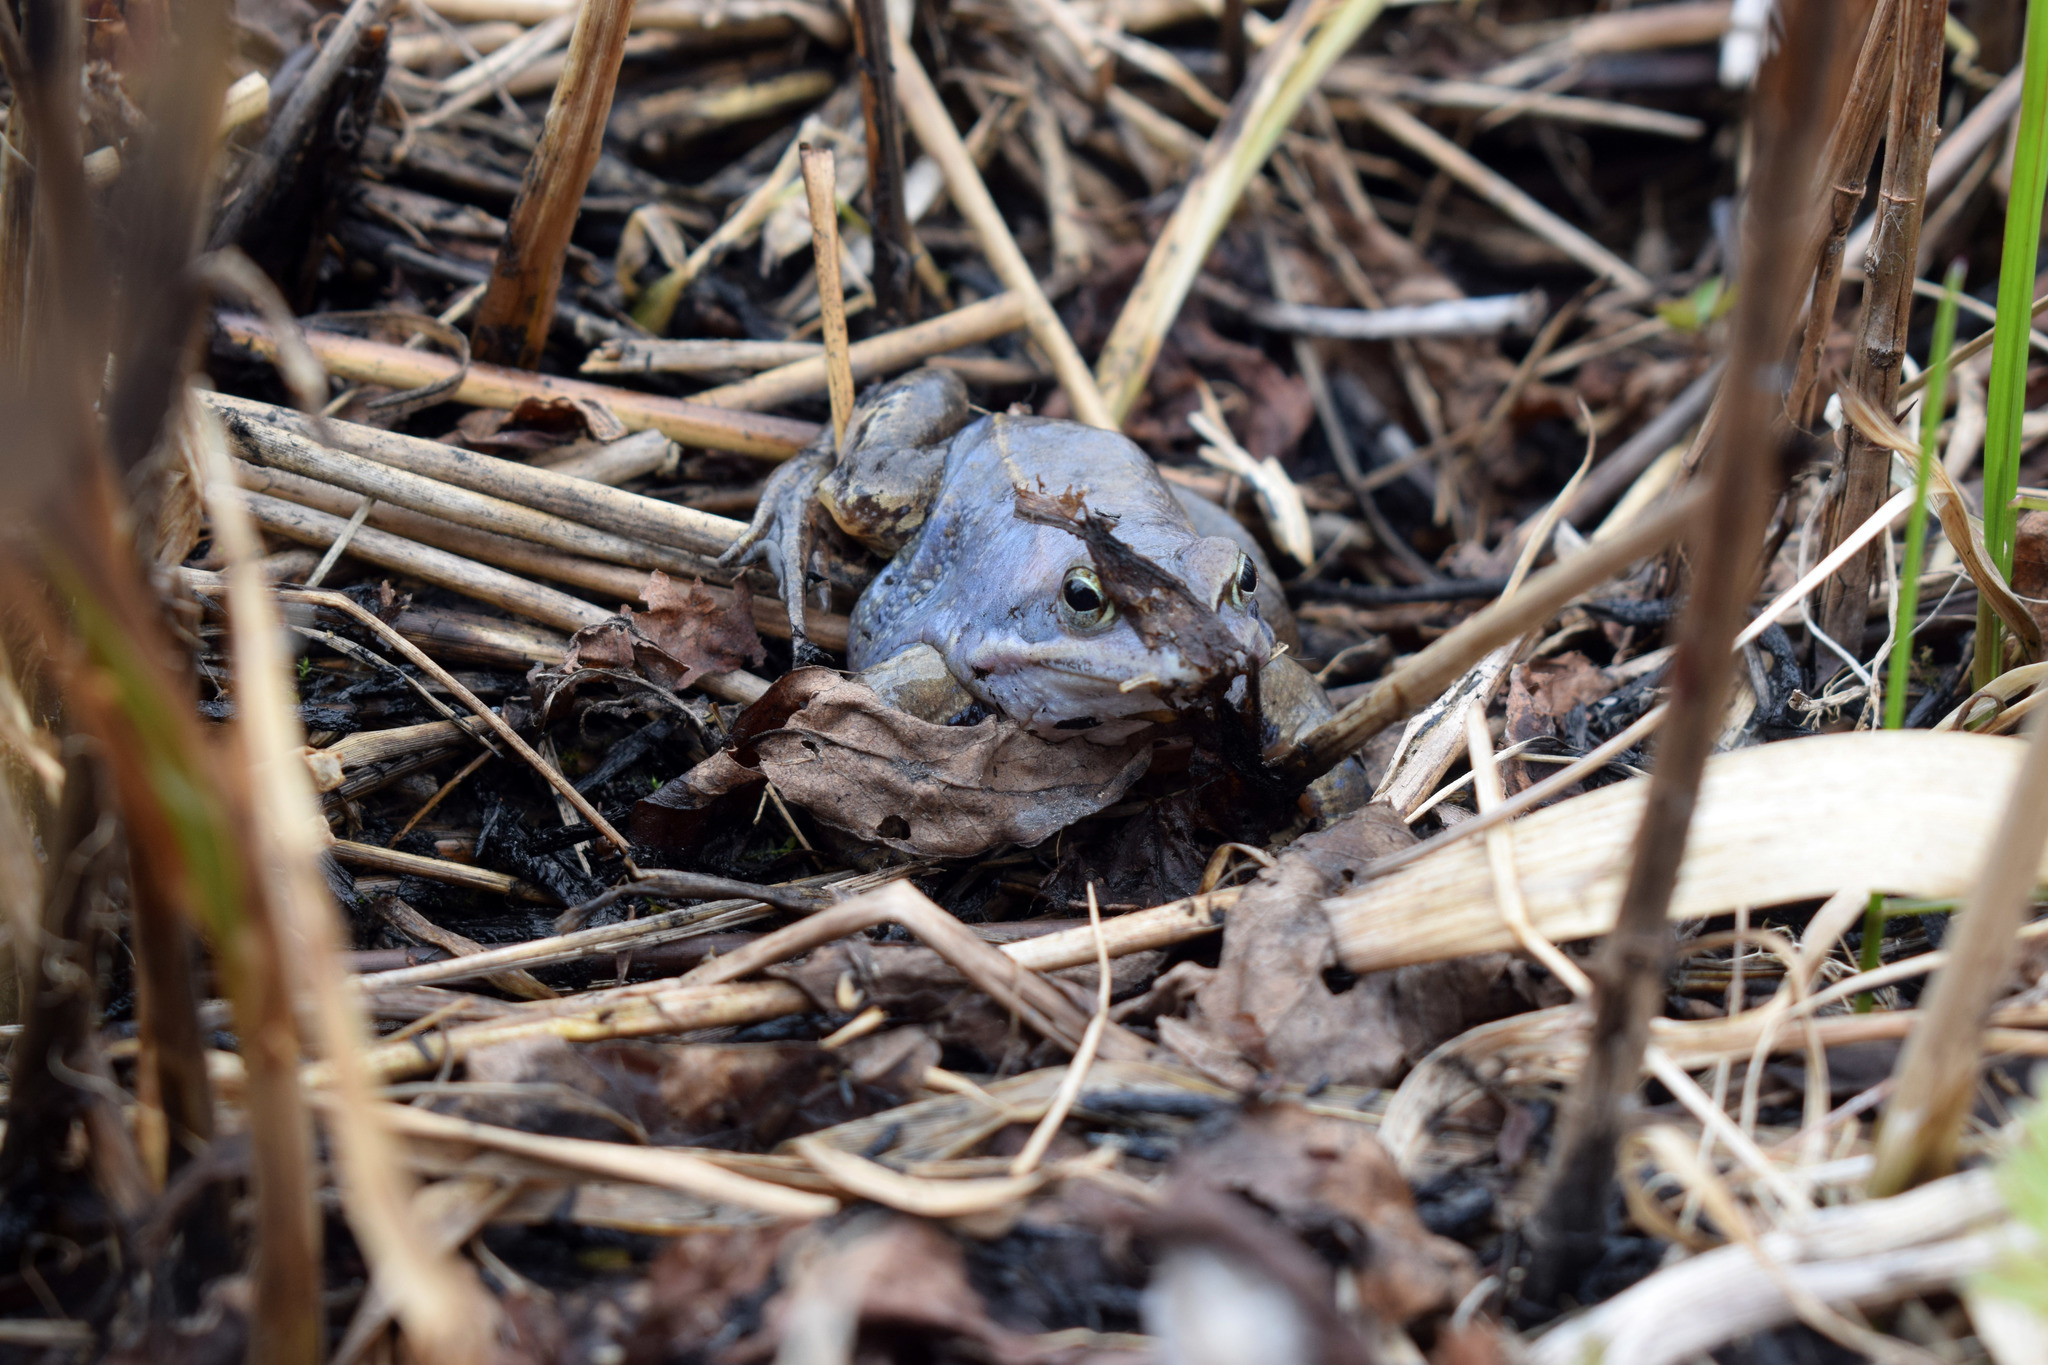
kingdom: Animalia
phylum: Chordata
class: Amphibia
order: Anura
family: Ranidae
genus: Rana
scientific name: Rana arvalis
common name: Moor frog
